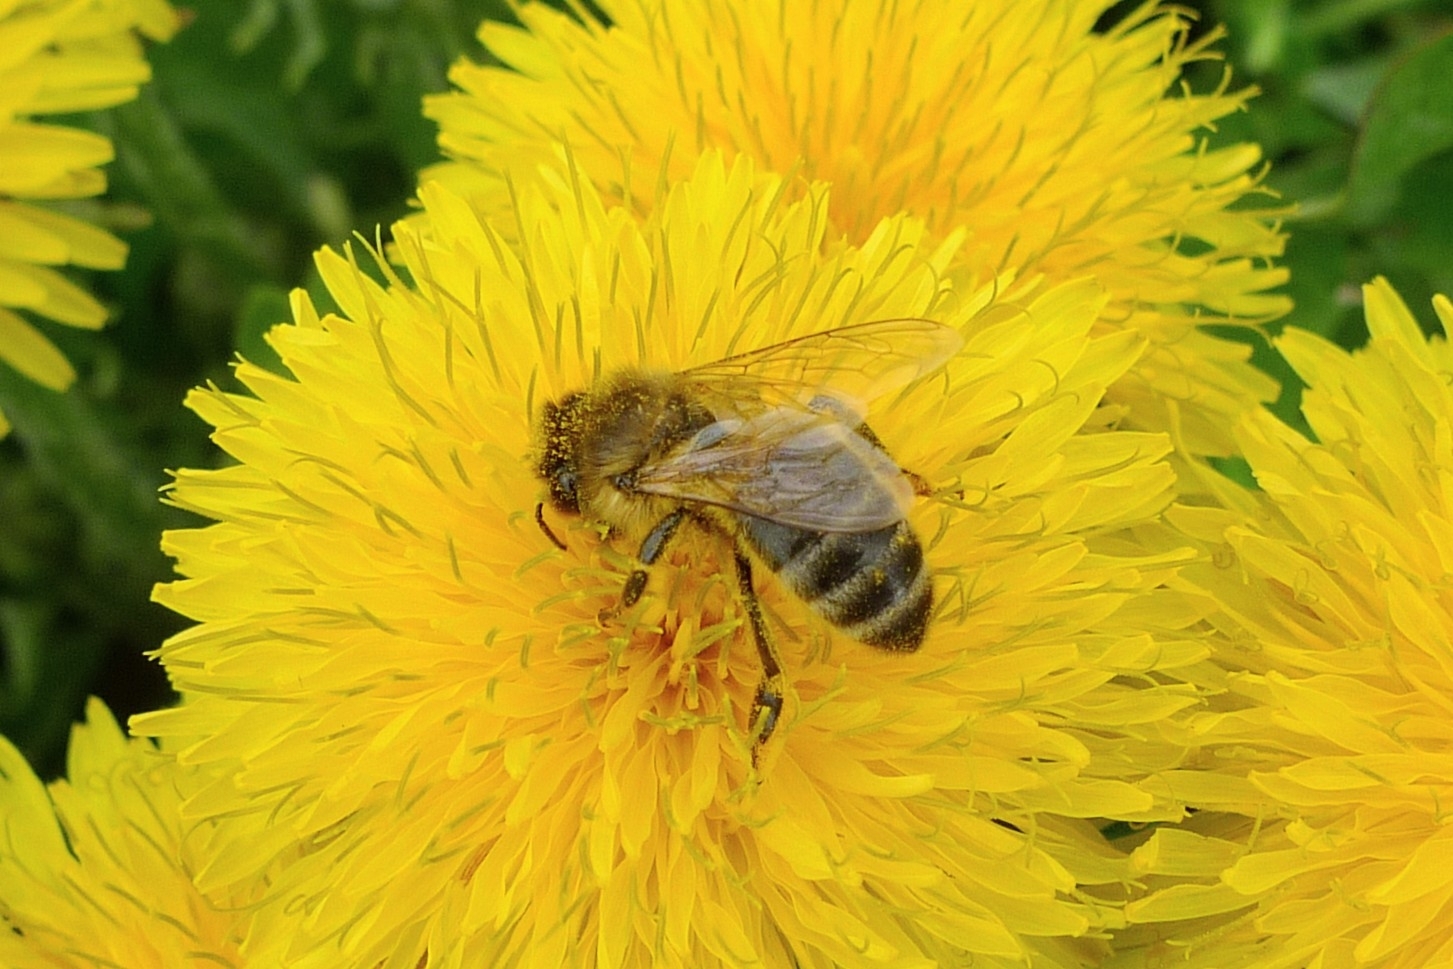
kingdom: Animalia
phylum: Arthropoda
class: Insecta
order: Hymenoptera
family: Apidae
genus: Apis
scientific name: Apis mellifera
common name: Honey bee
